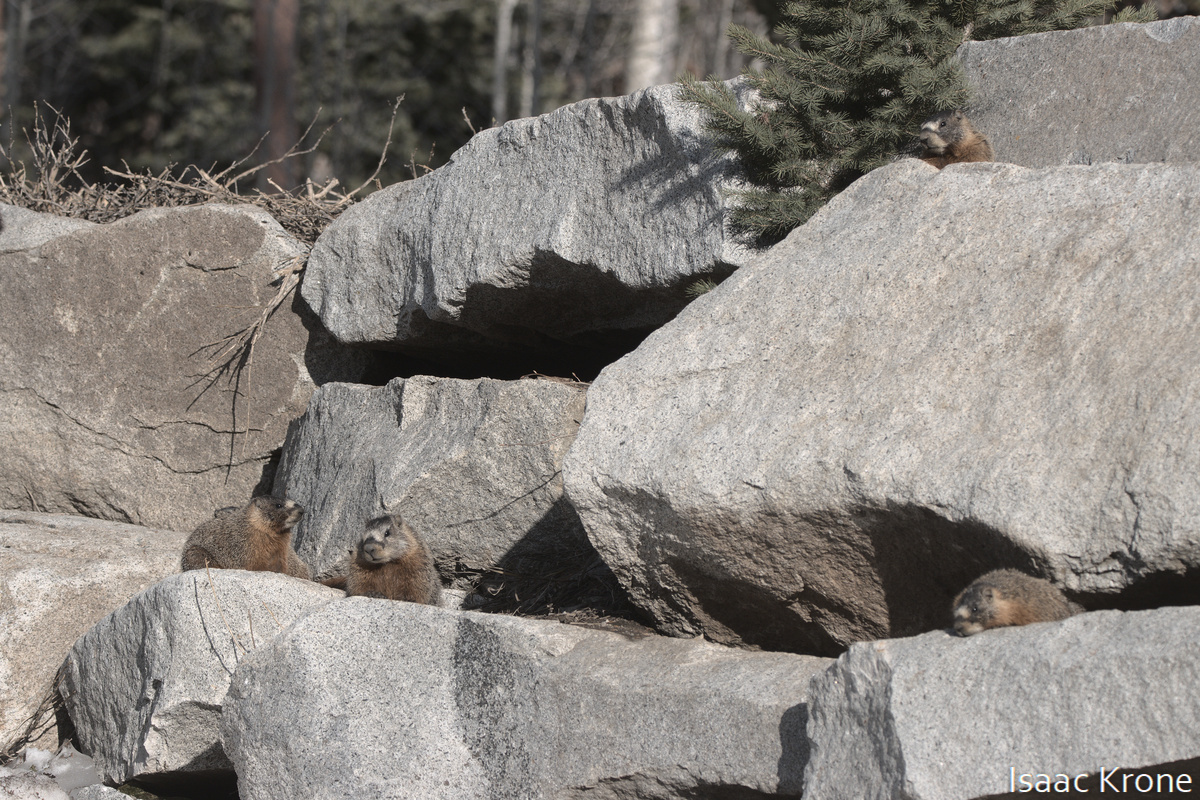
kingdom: Animalia
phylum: Chordata
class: Mammalia
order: Rodentia
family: Sciuridae
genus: Marmota
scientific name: Marmota flaviventris
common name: Yellow-bellied marmot
